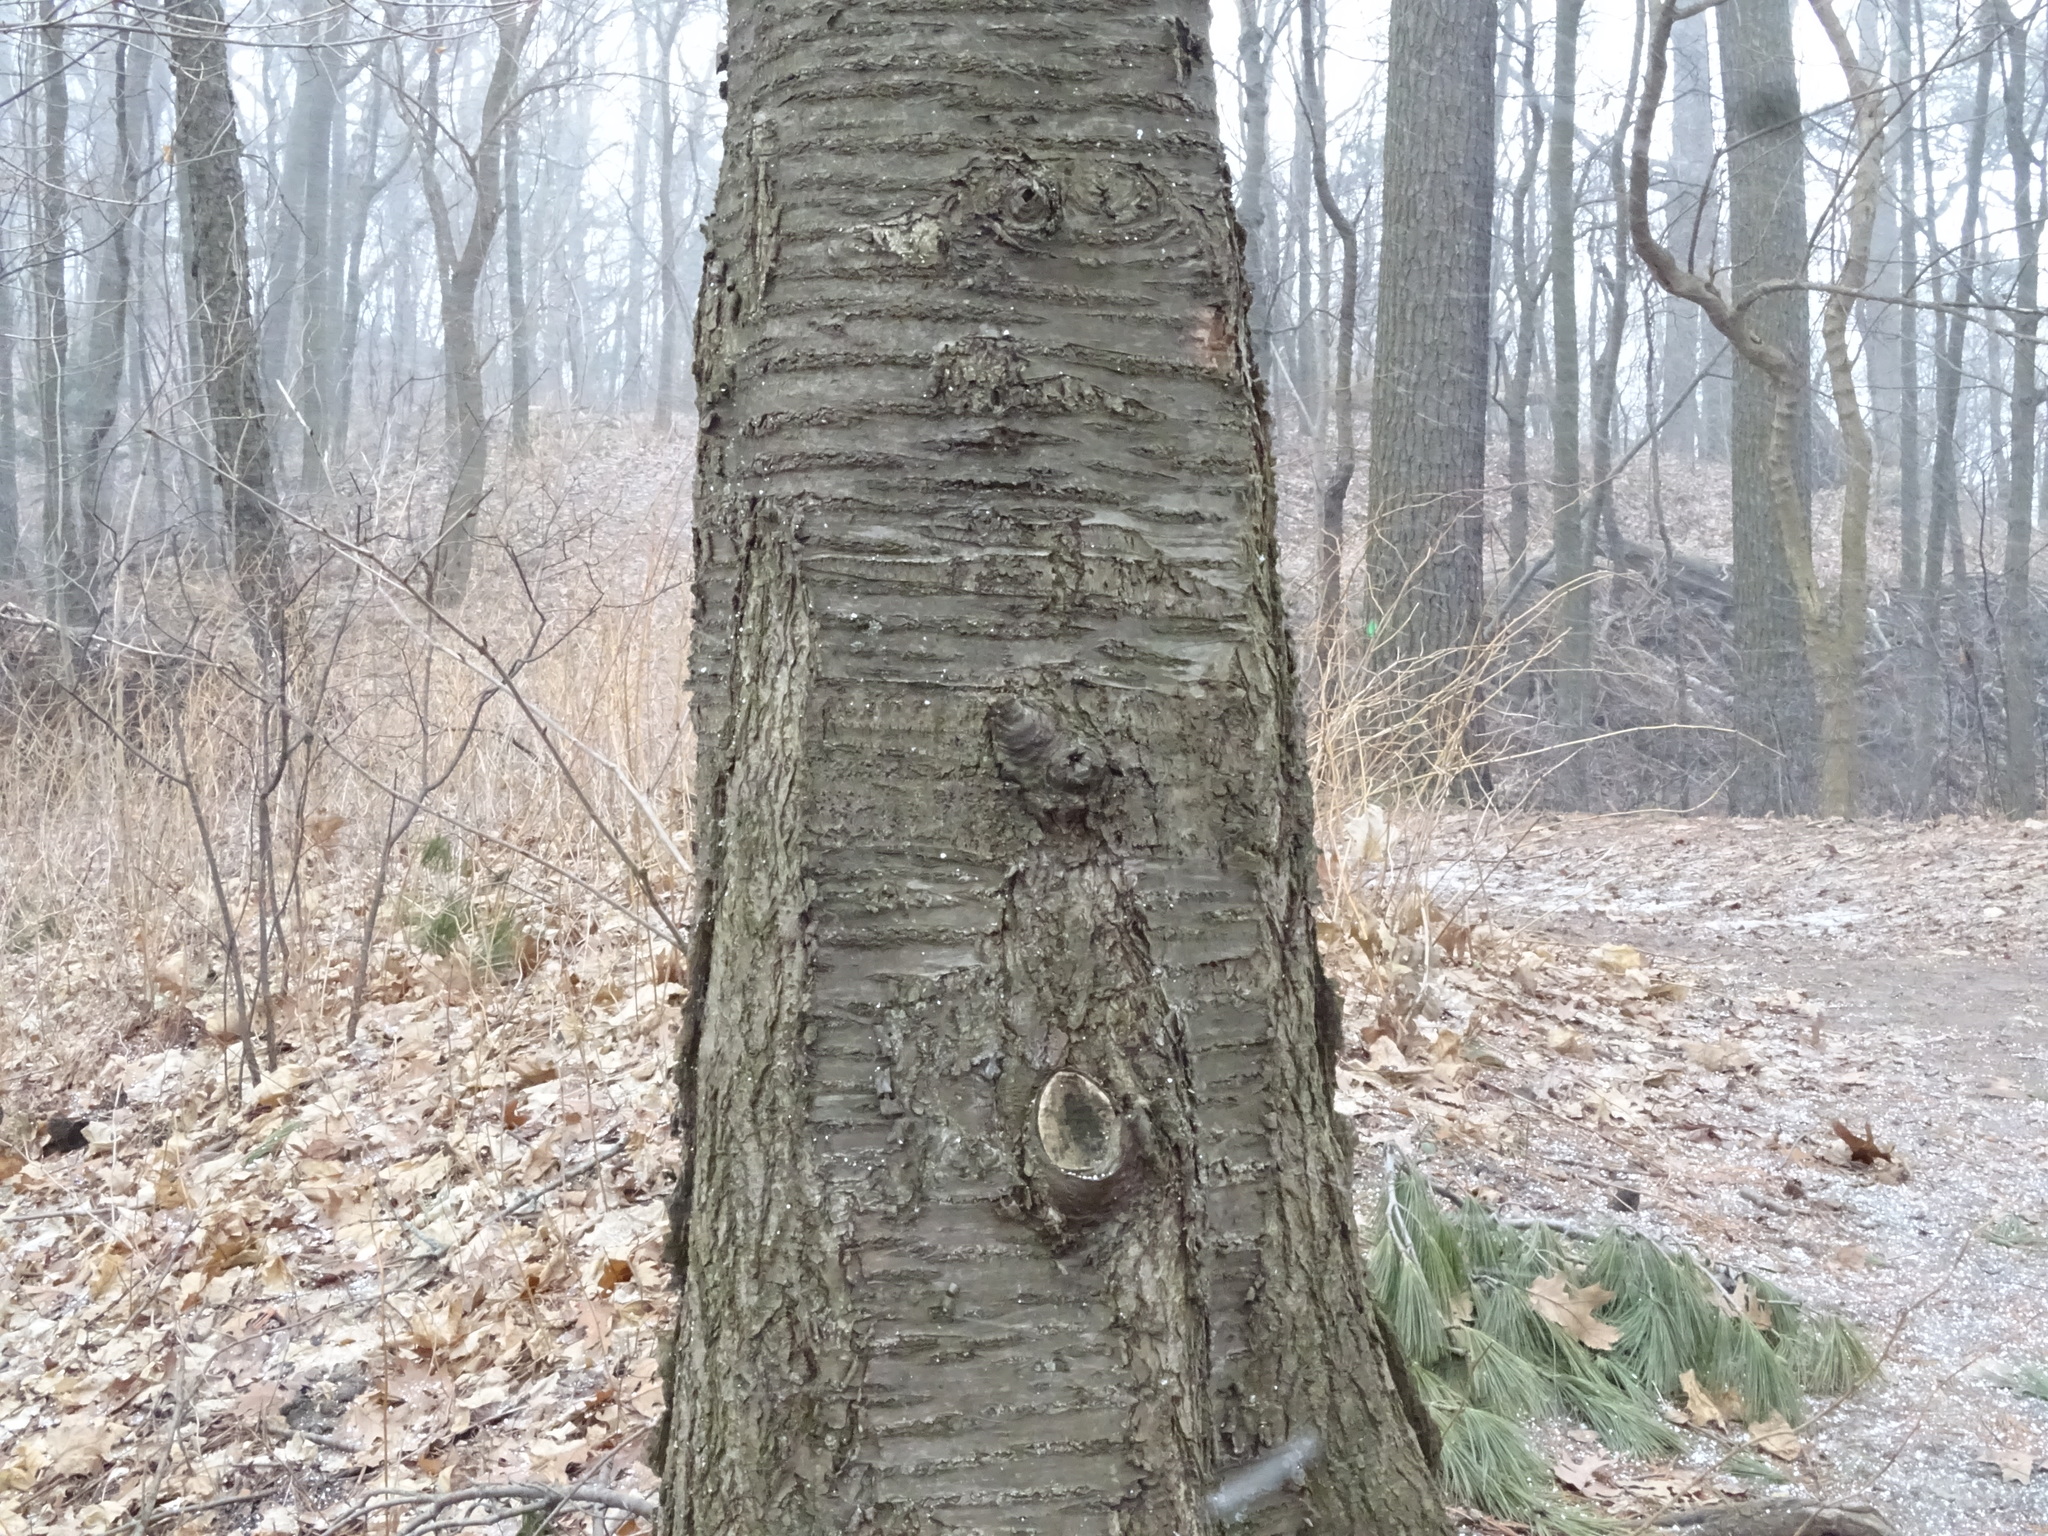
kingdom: Plantae
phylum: Tracheophyta
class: Magnoliopsida
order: Rosales
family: Rosaceae
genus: Prunus
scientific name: Prunus avium
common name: Sweet cherry
